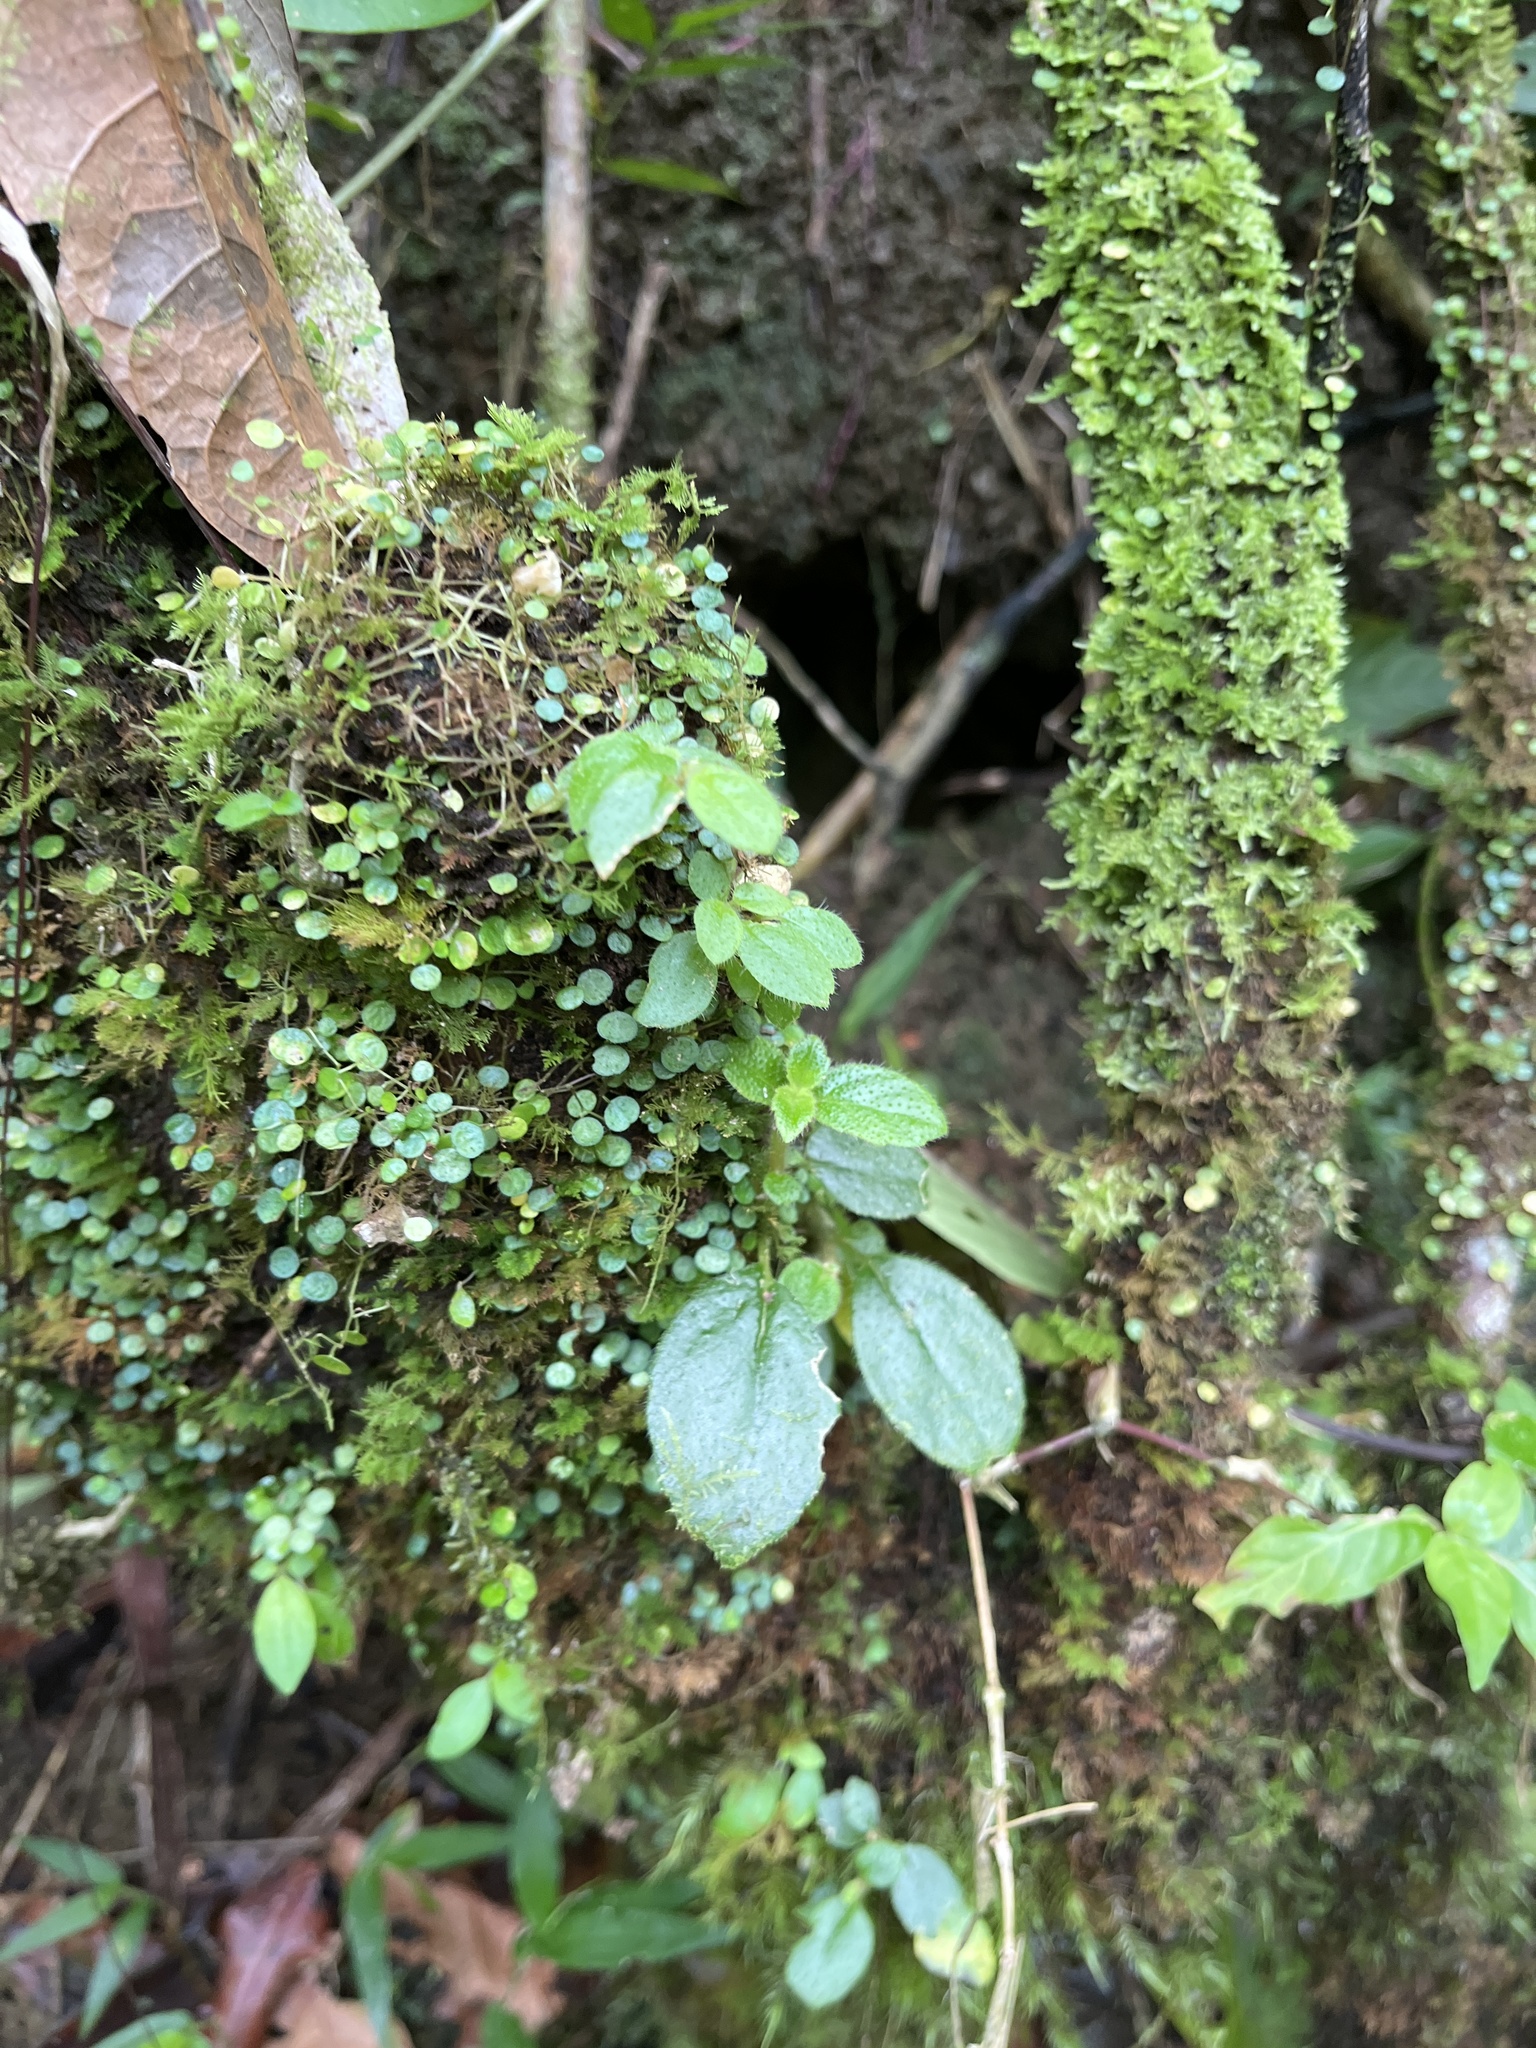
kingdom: Plantae
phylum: Tracheophyta
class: Magnoliopsida
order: Piperales
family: Piperaceae
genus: Peperomia
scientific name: Peperomia emarginella
